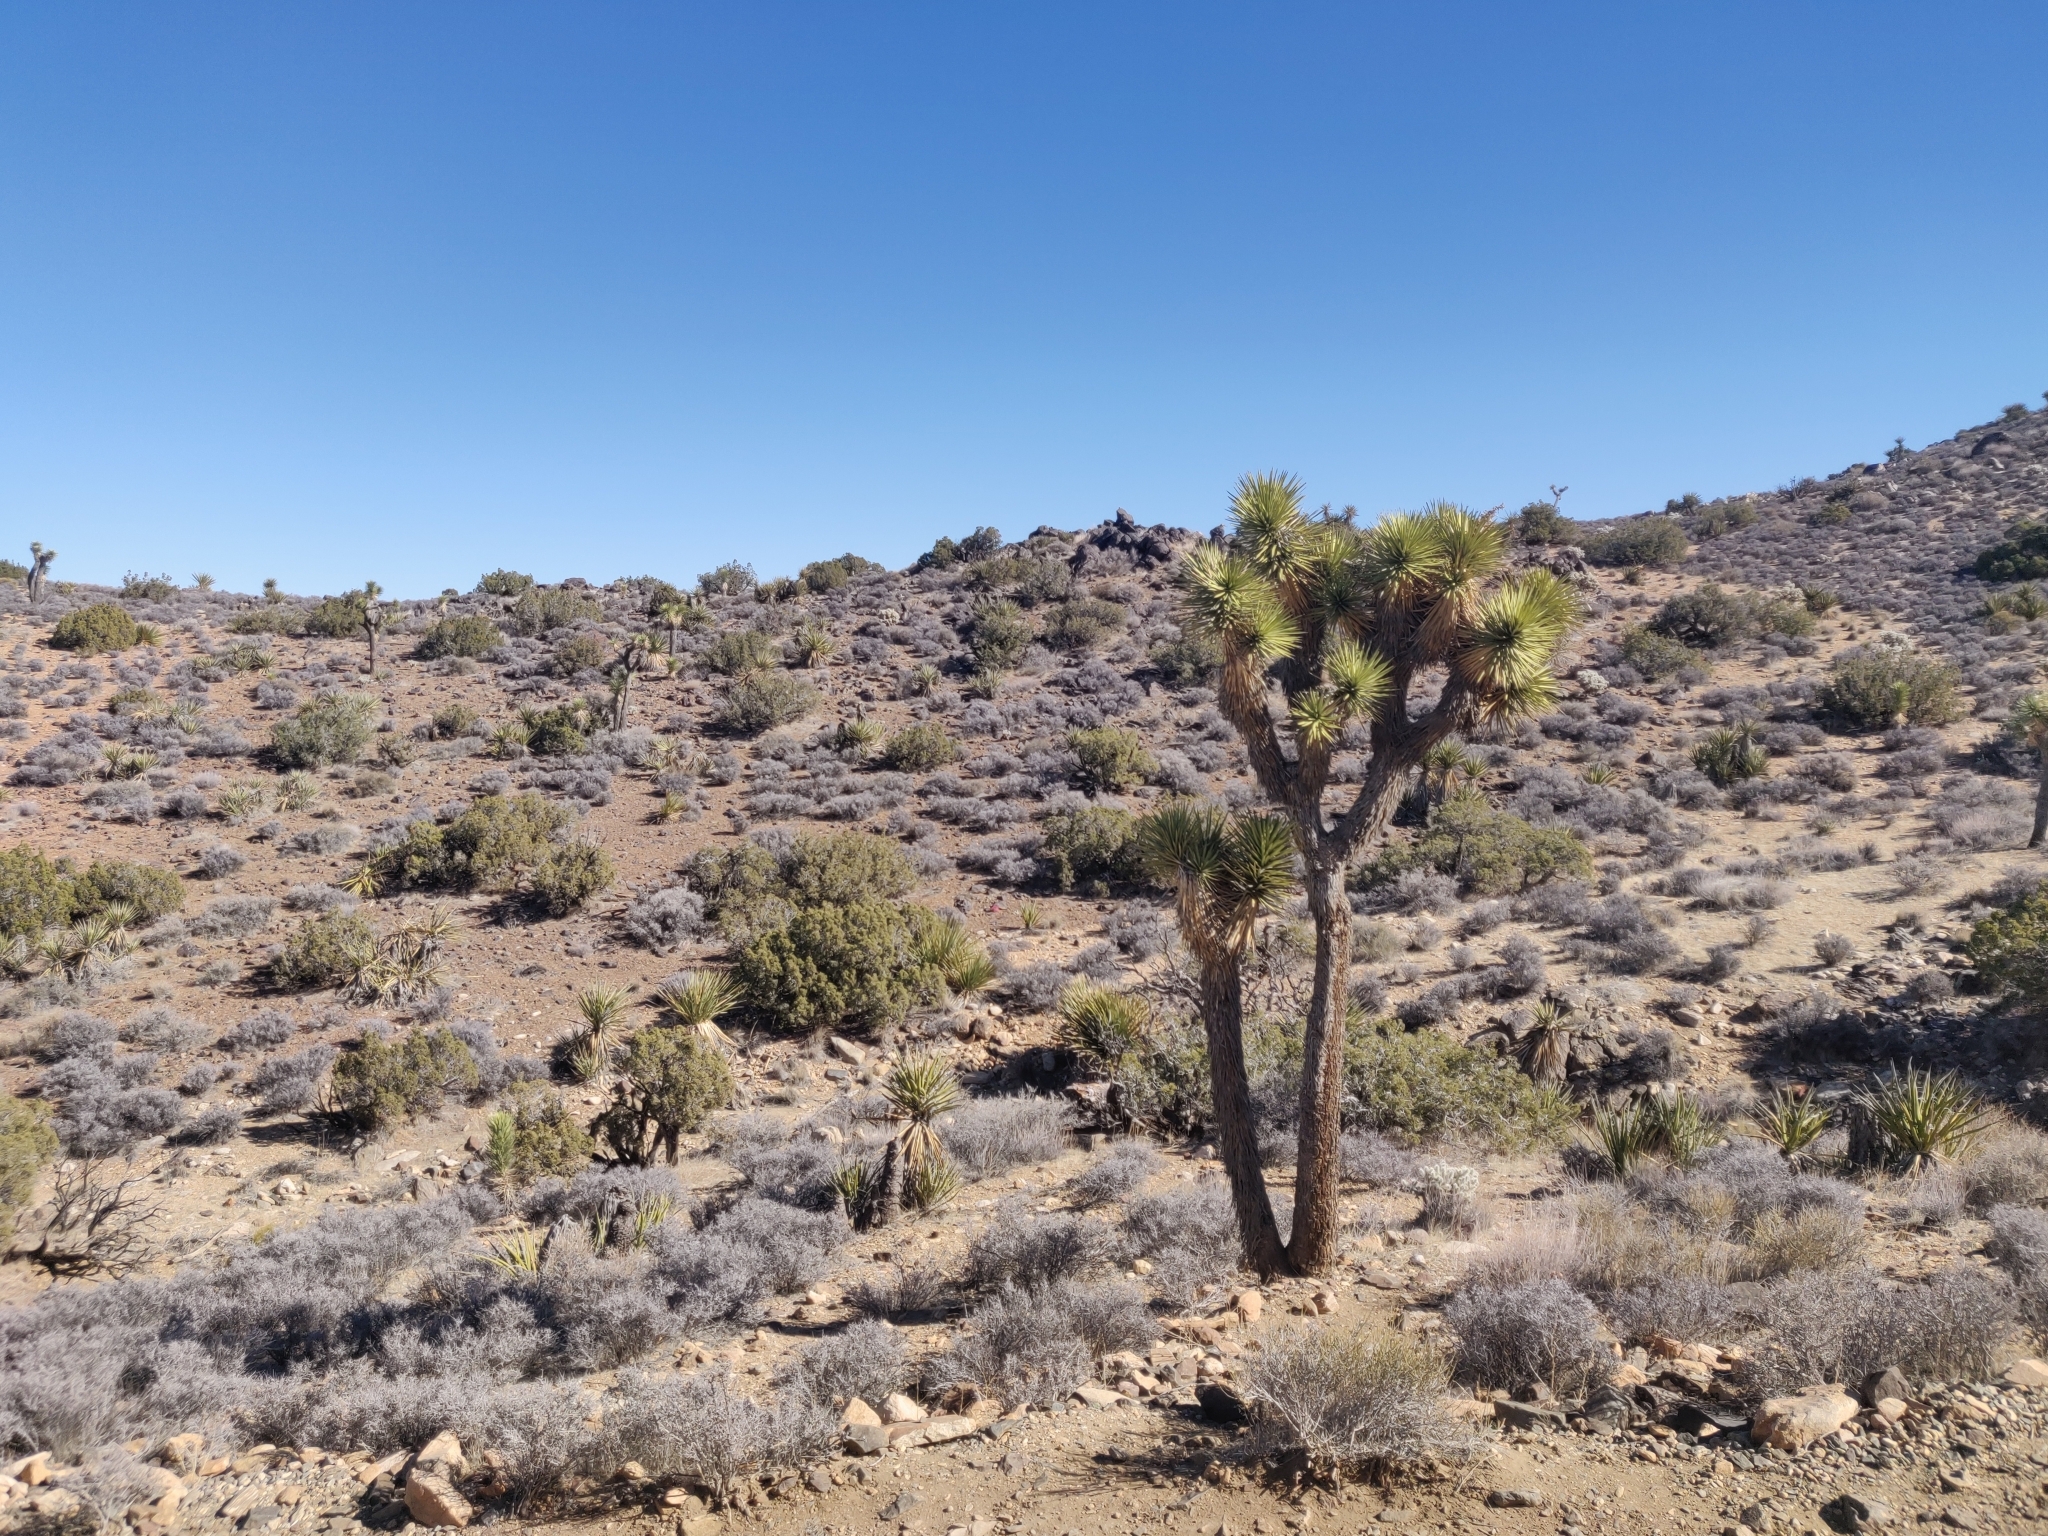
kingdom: Plantae
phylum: Tracheophyta
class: Liliopsida
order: Asparagales
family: Asparagaceae
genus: Yucca
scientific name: Yucca brevifolia
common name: Joshua tree
